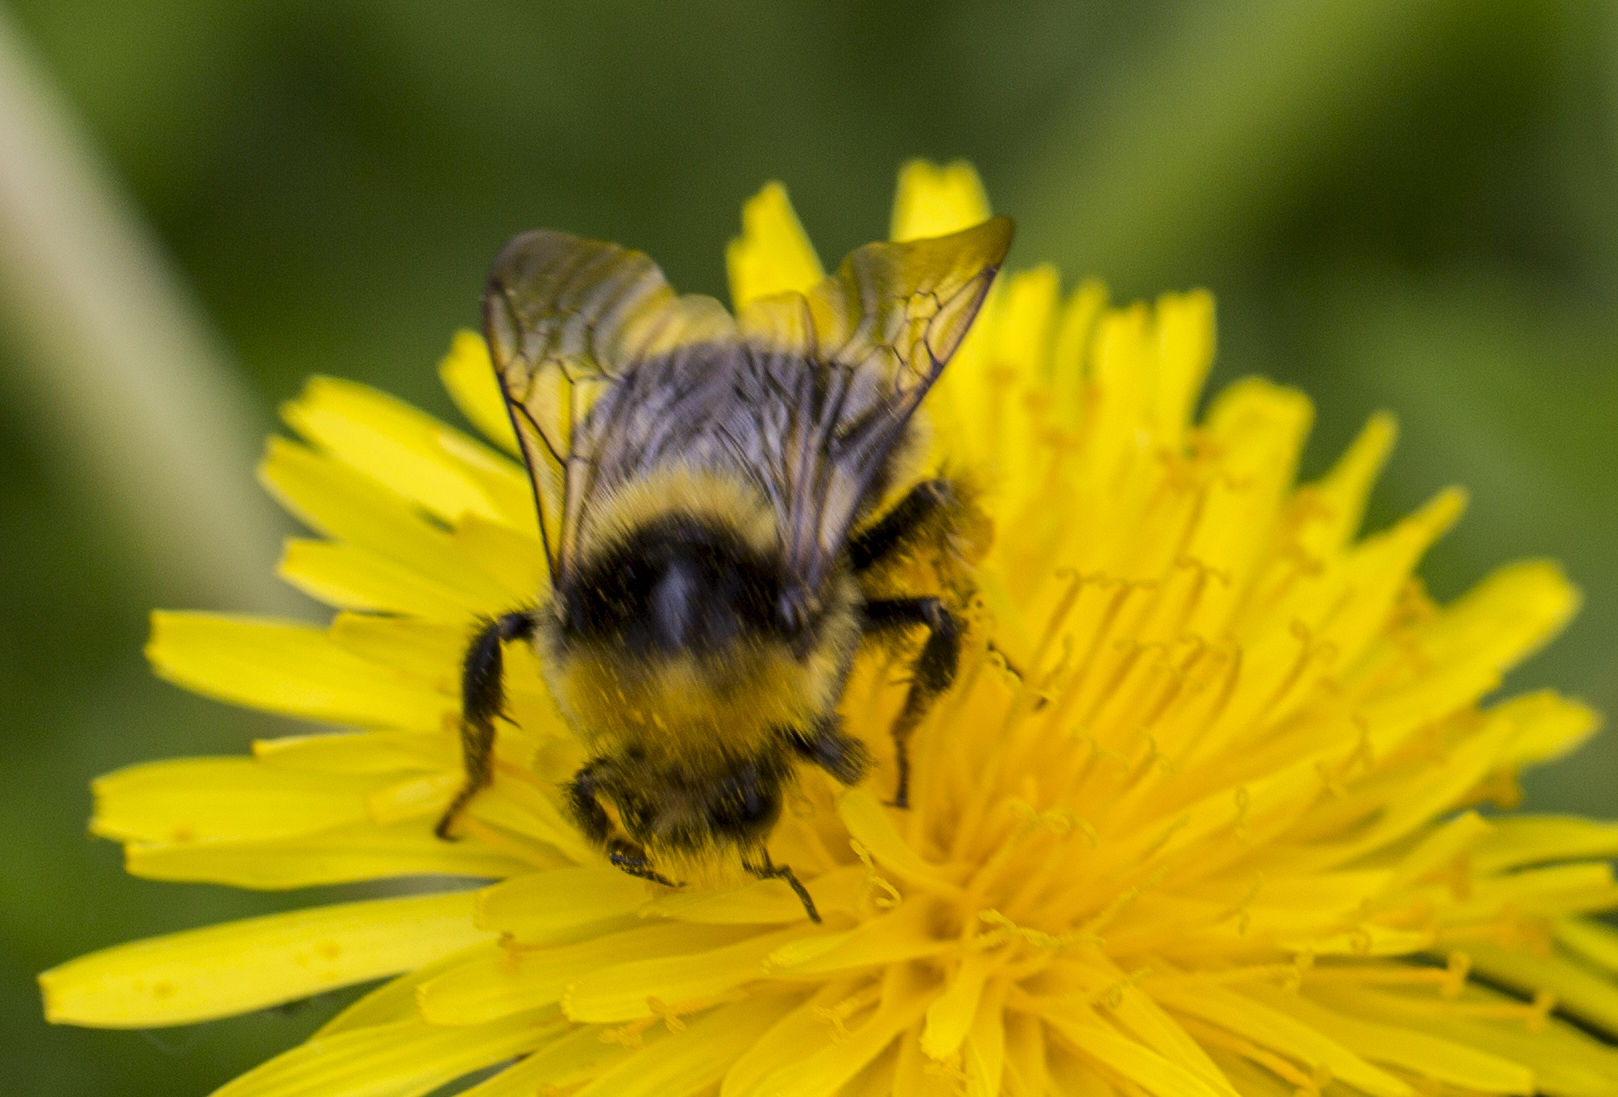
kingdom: Animalia
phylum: Arthropoda
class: Insecta
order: Hymenoptera
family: Apidae
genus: Bombus
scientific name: Bombus semenoviellus
